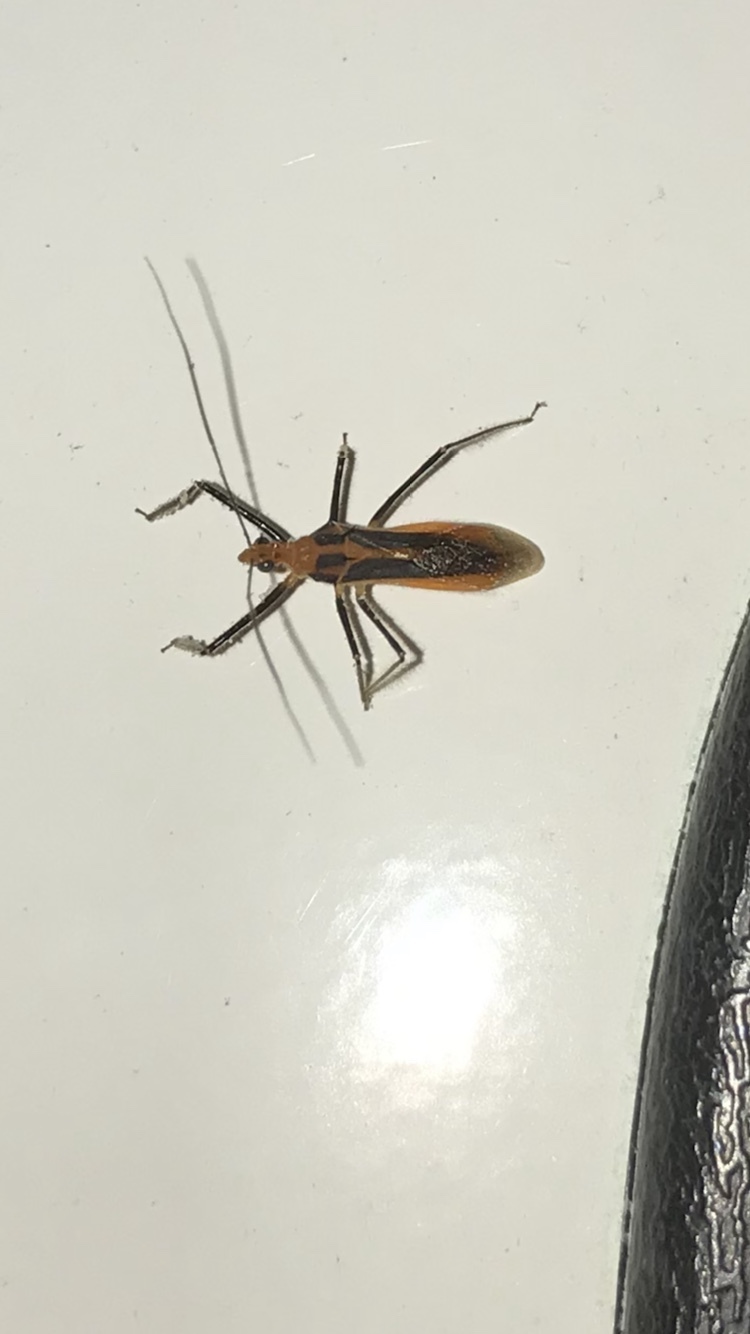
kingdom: Animalia
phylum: Arthropoda
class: Insecta
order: Hemiptera
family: Reduviidae
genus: Repipta
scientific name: Repipta taurus
